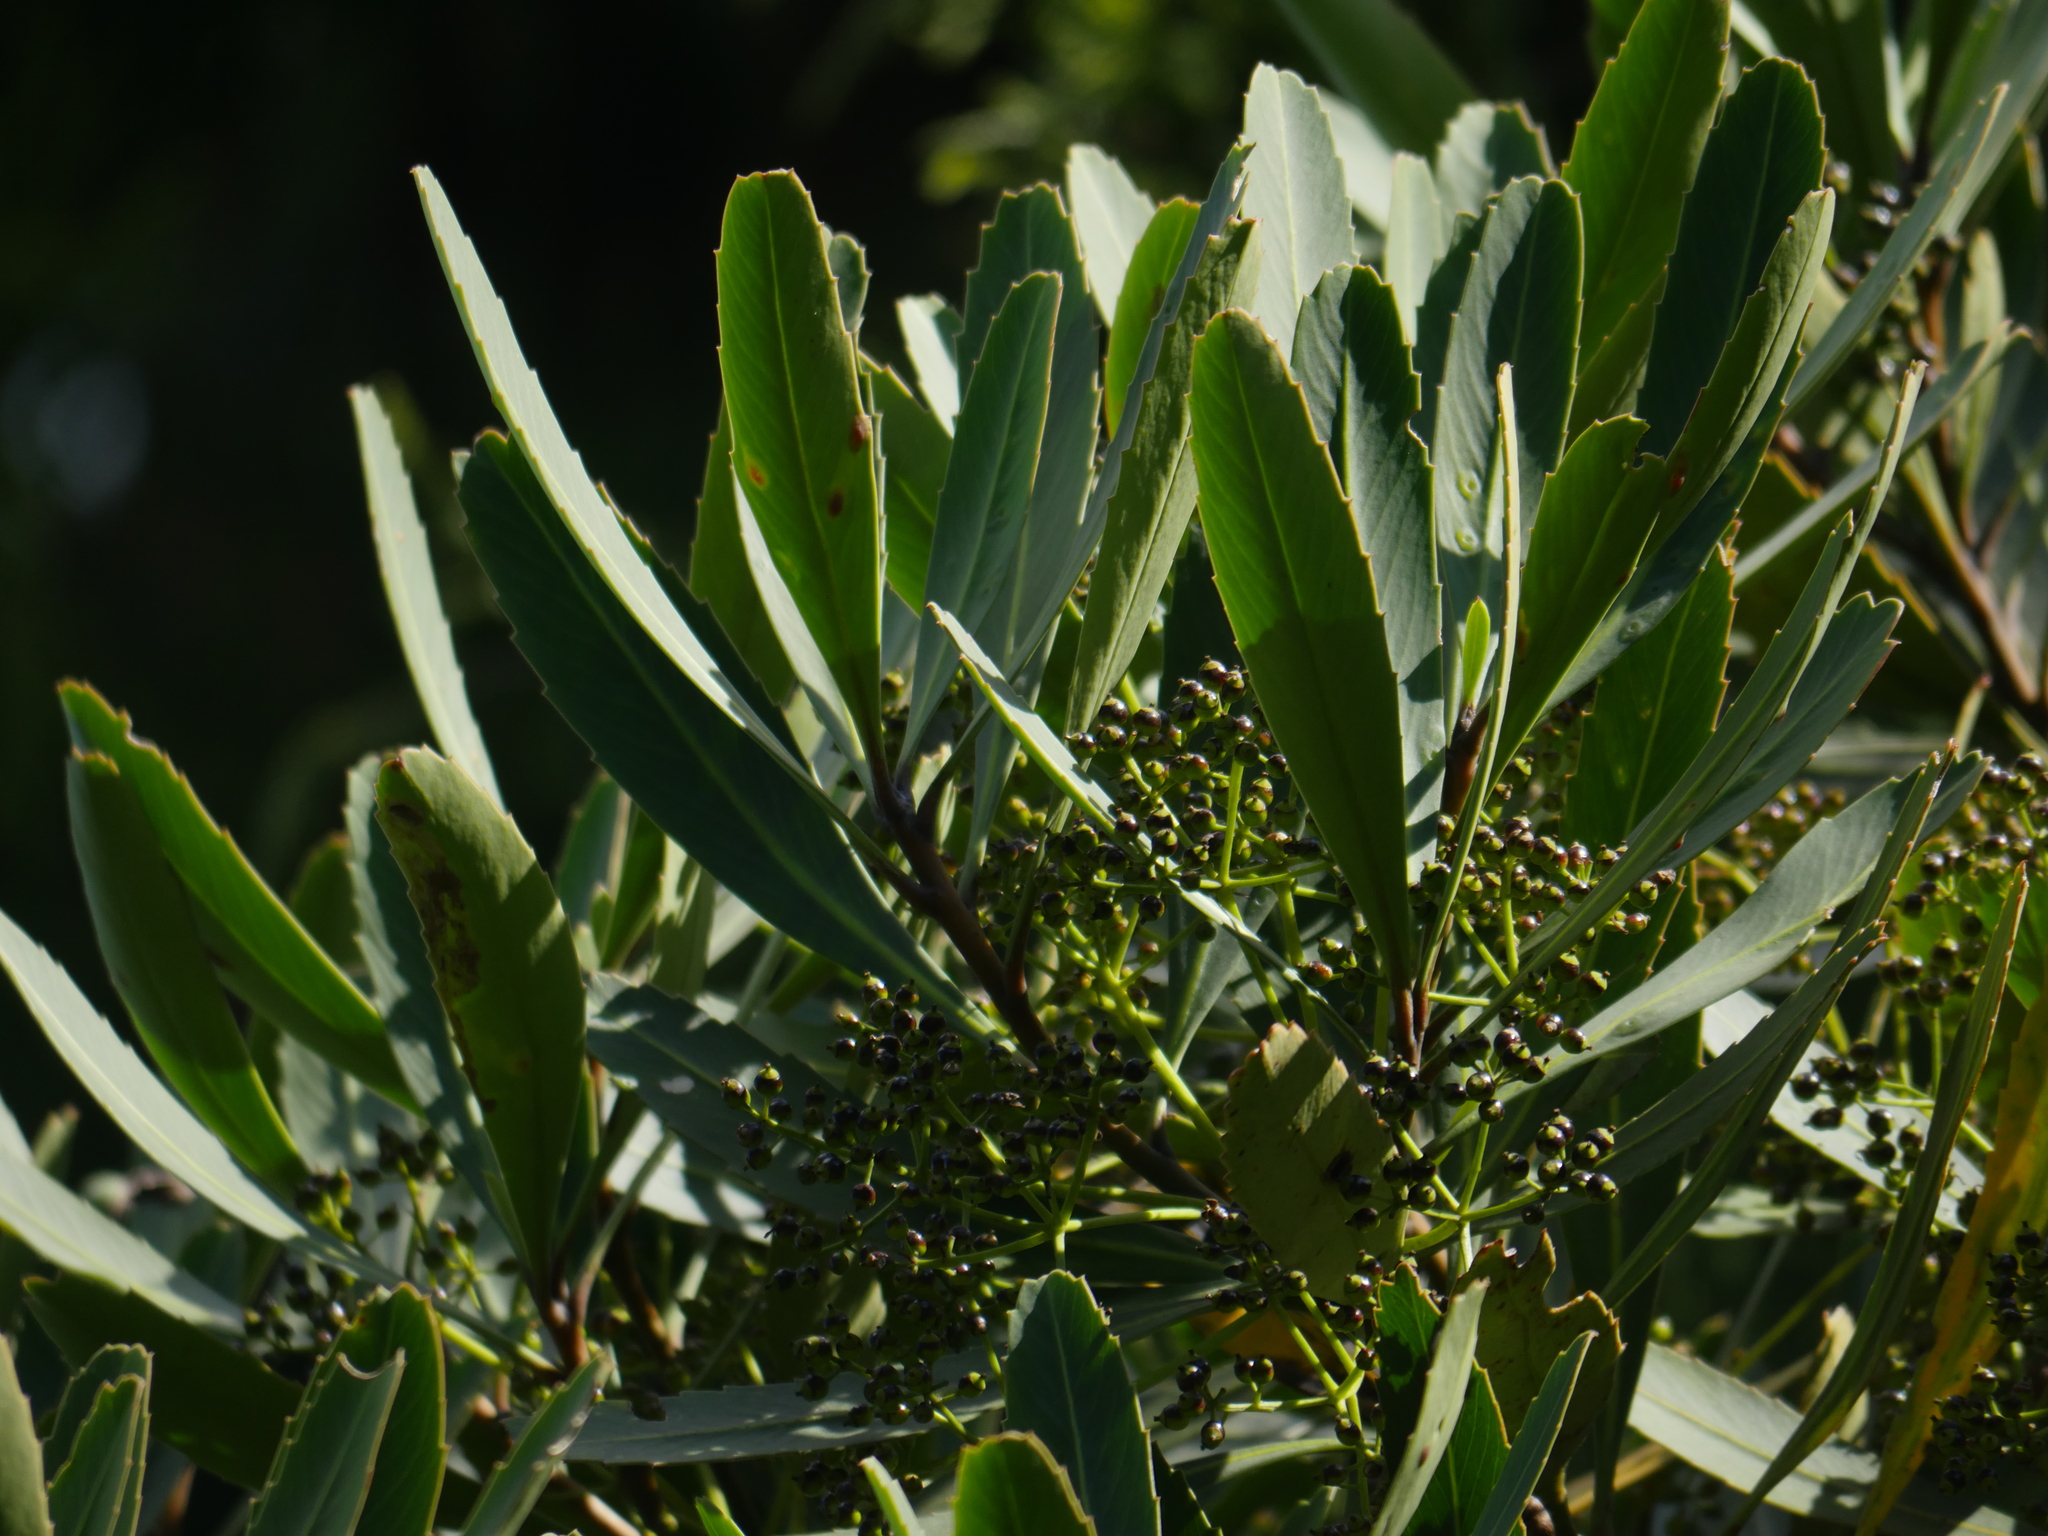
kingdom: Plantae
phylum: Tracheophyta
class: Magnoliopsida
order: Apiales
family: Araliaceae
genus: Pseudopanax
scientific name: Pseudopanax crassifolius
